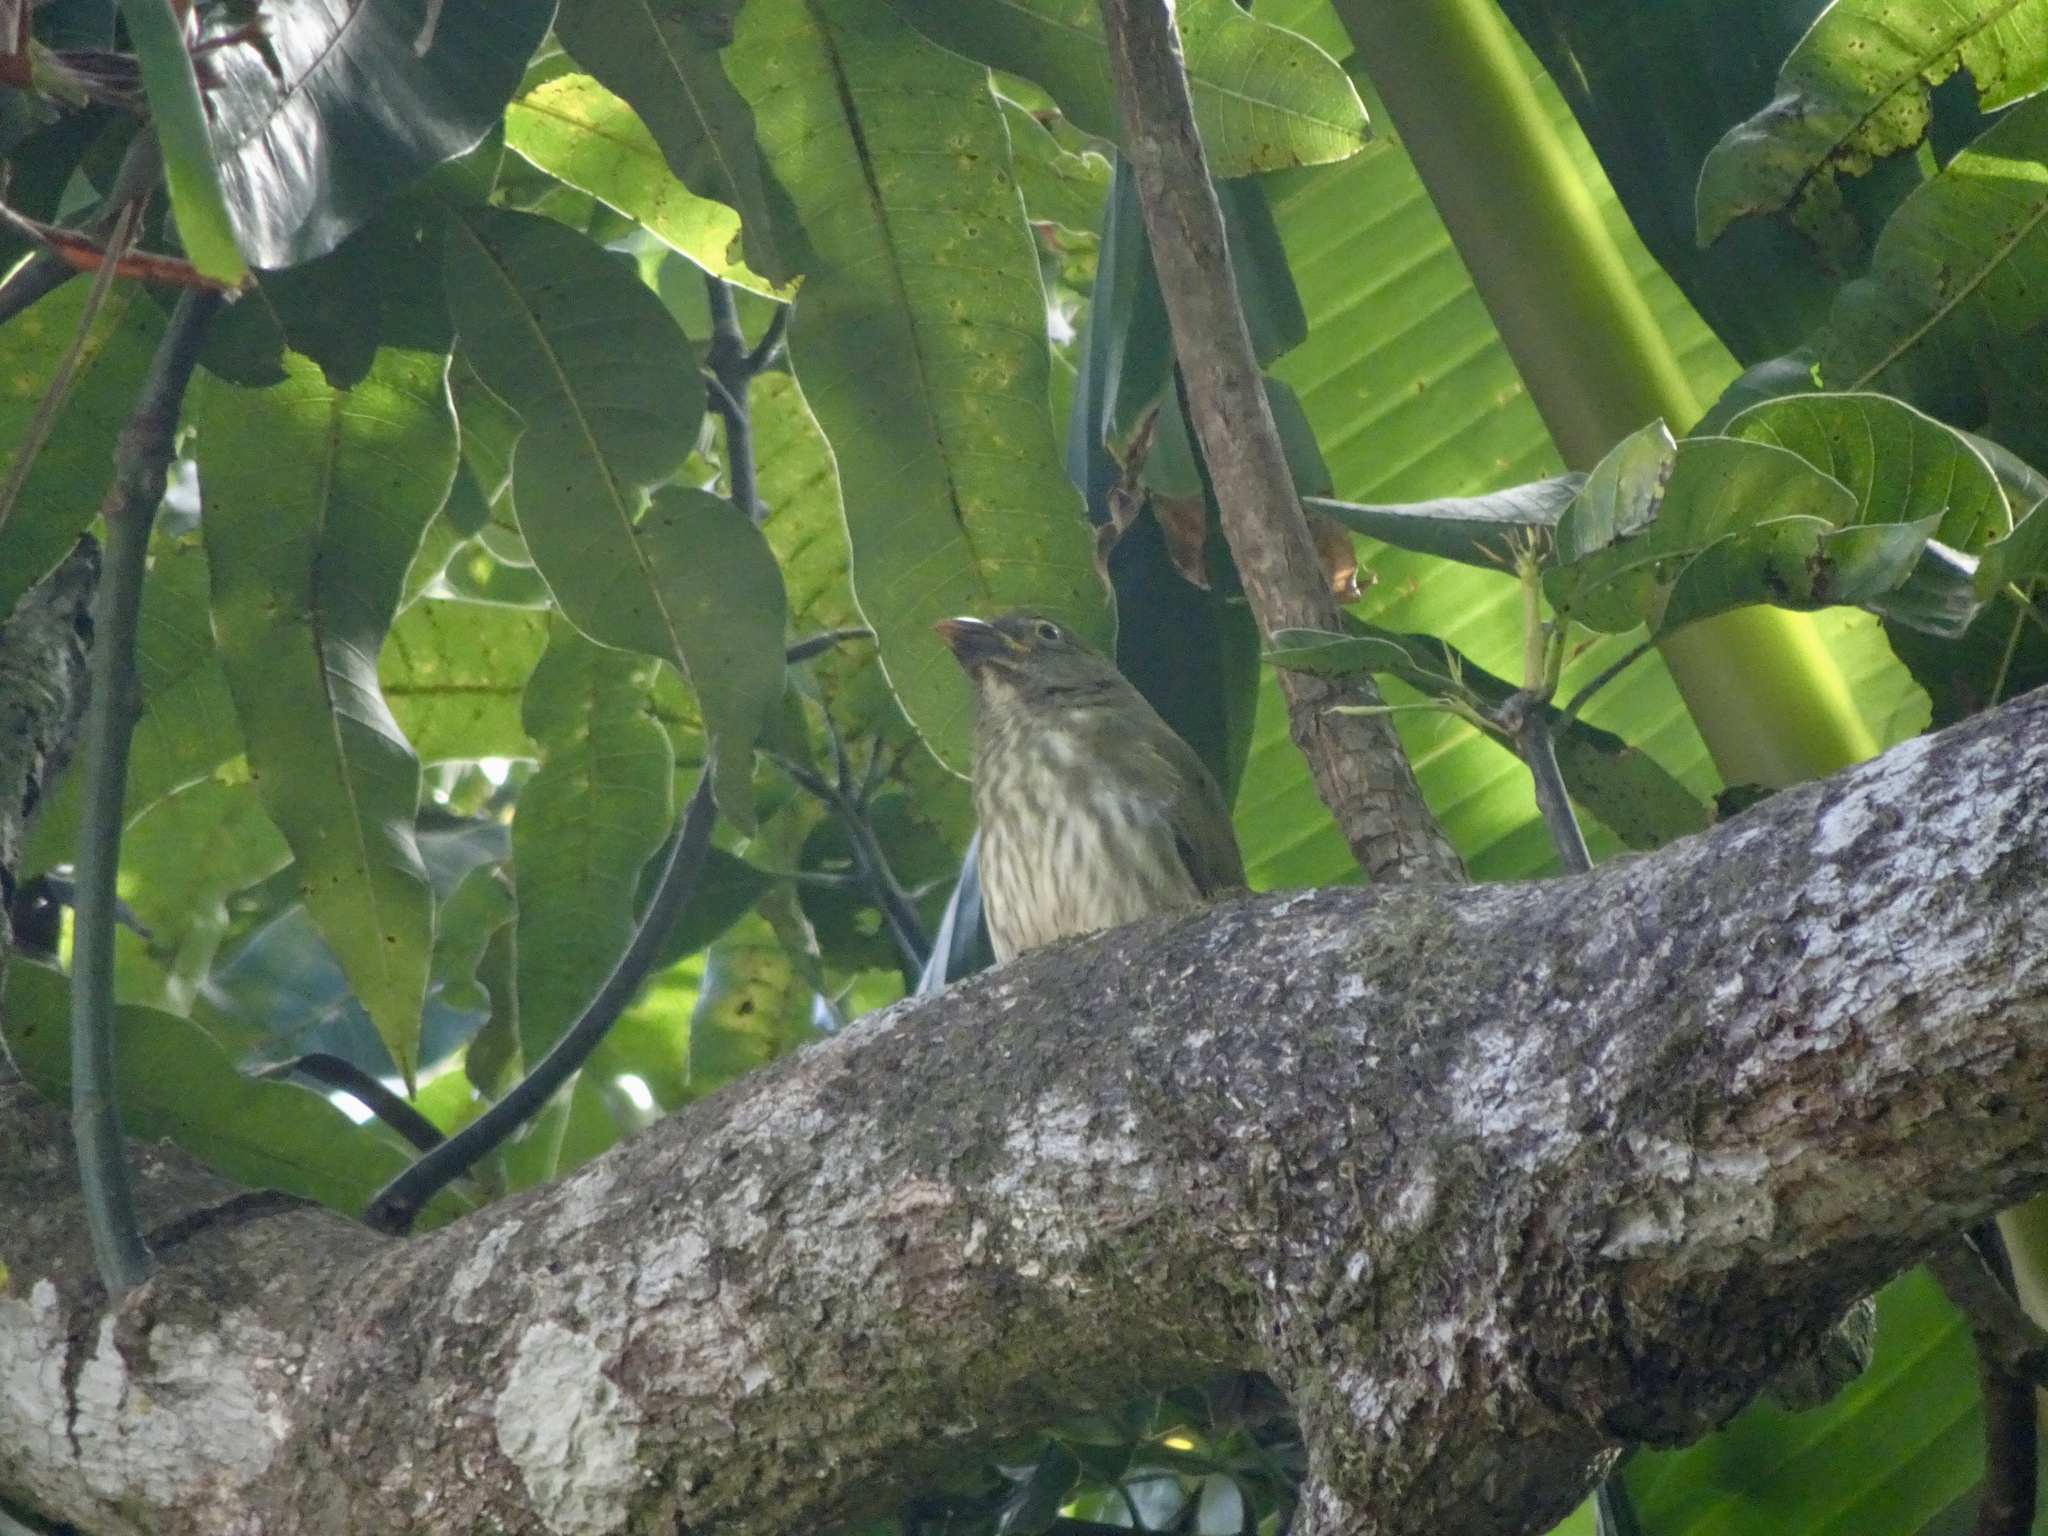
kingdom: Animalia
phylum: Chordata
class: Aves
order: Passeriformes
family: Thraupidae
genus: Saltator
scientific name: Saltator striatipectus
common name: Streaked saltator
